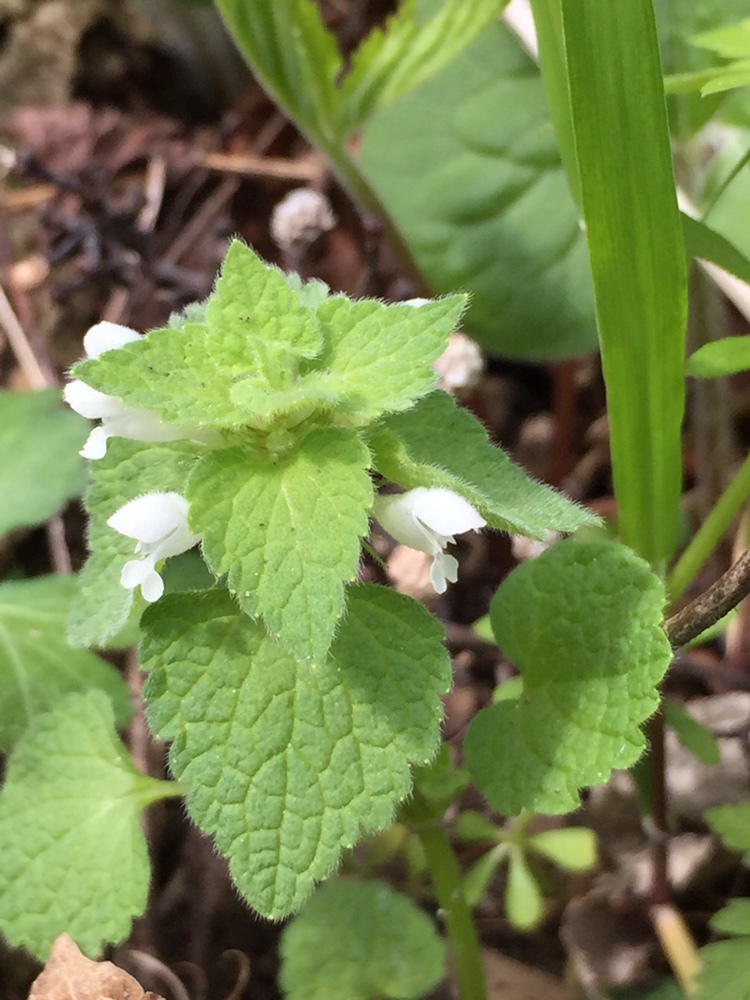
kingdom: Plantae
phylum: Tracheophyta
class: Magnoliopsida
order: Lamiales
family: Lamiaceae
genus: Lamium
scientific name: Lamium purpureum
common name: Red dead-nettle
